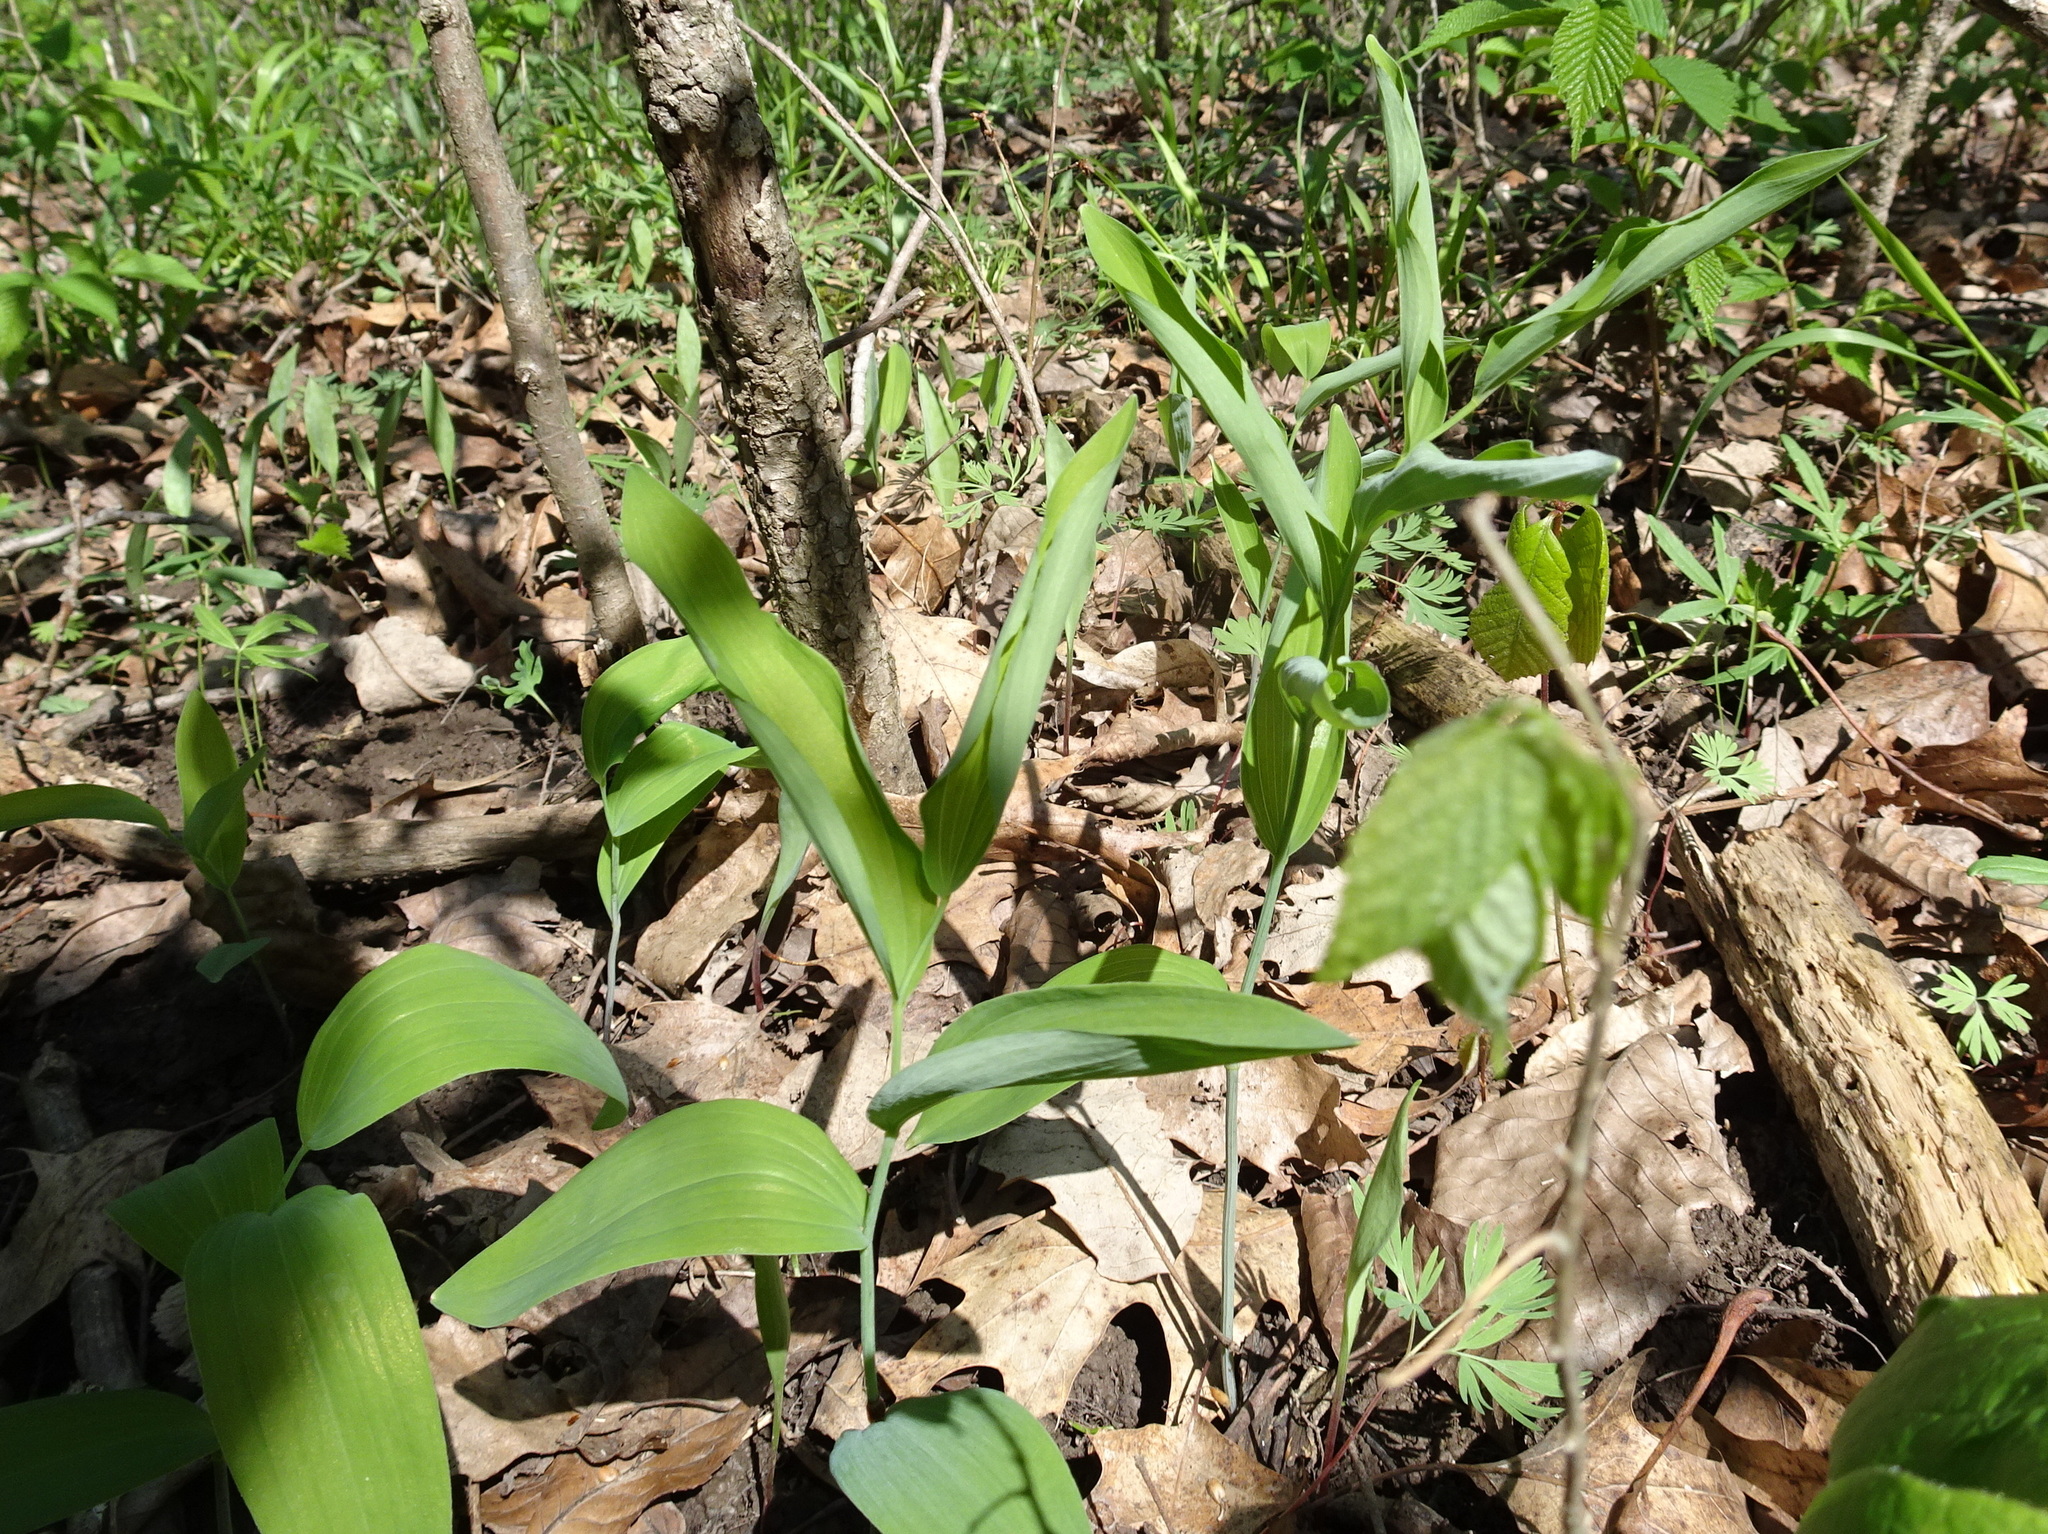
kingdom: Plantae
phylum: Tracheophyta
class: Liliopsida
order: Asparagales
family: Asparagaceae
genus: Polygonatum
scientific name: Polygonatum biflorum
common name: American solomon's-seal
